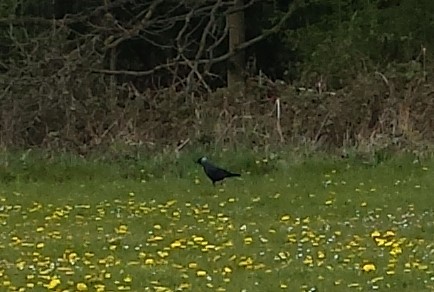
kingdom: Animalia
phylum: Chordata
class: Aves
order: Passeriformes
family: Corvidae
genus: Coloeus
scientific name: Coloeus monedula
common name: Western jackdaw
